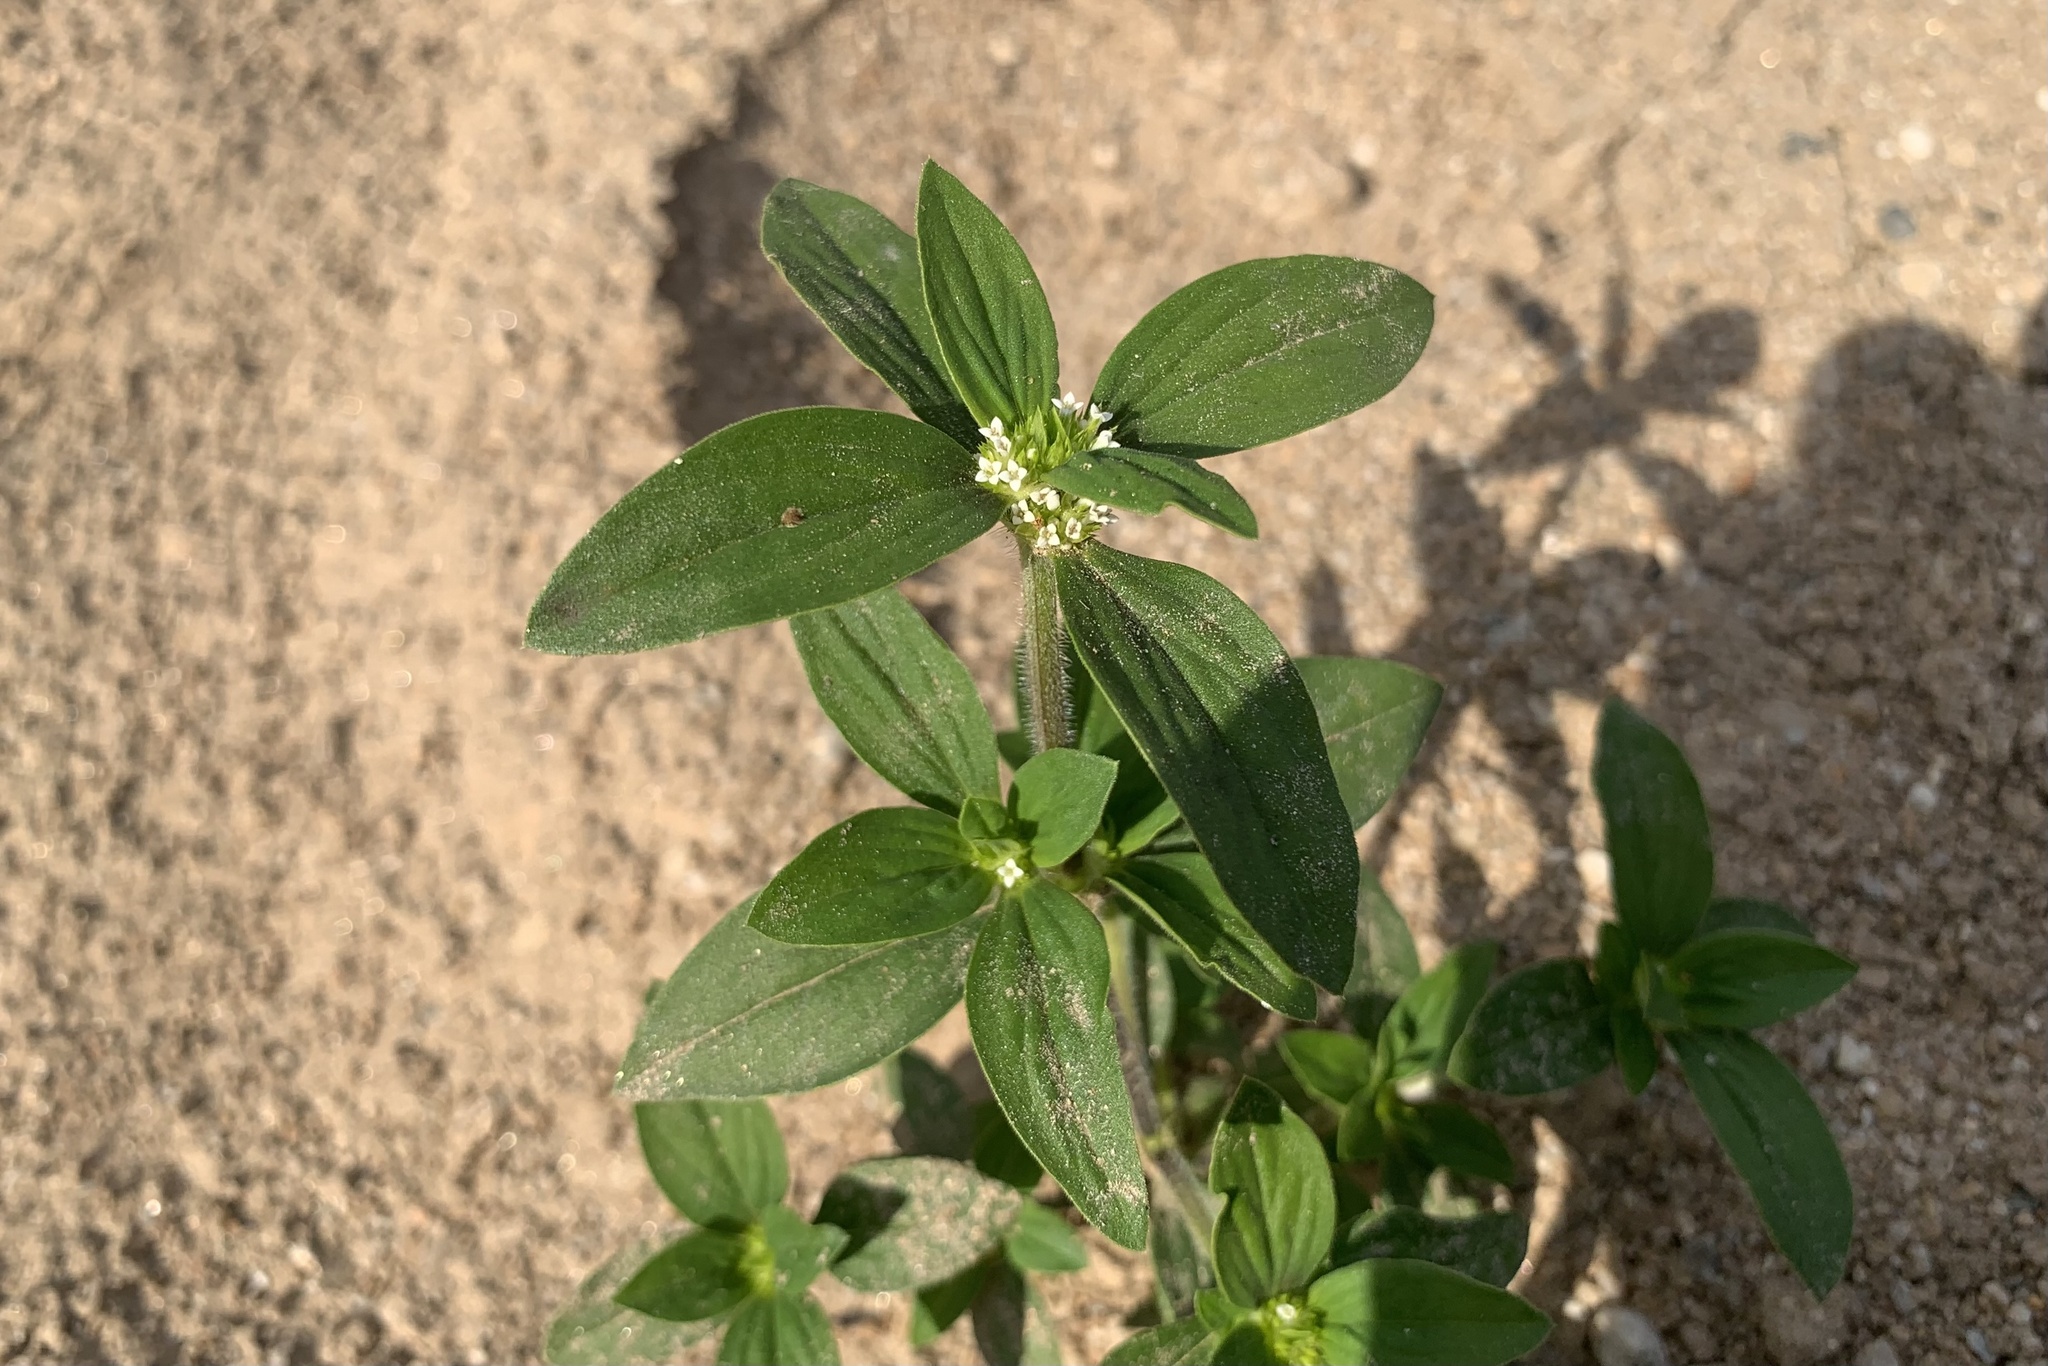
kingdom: Plantae
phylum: Tracheophyta
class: Magnoliopsida
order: Gentianales
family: Rubiaceae
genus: Mitracarpus
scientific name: Mitracarpus hirtus
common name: Tropical girdlepod
